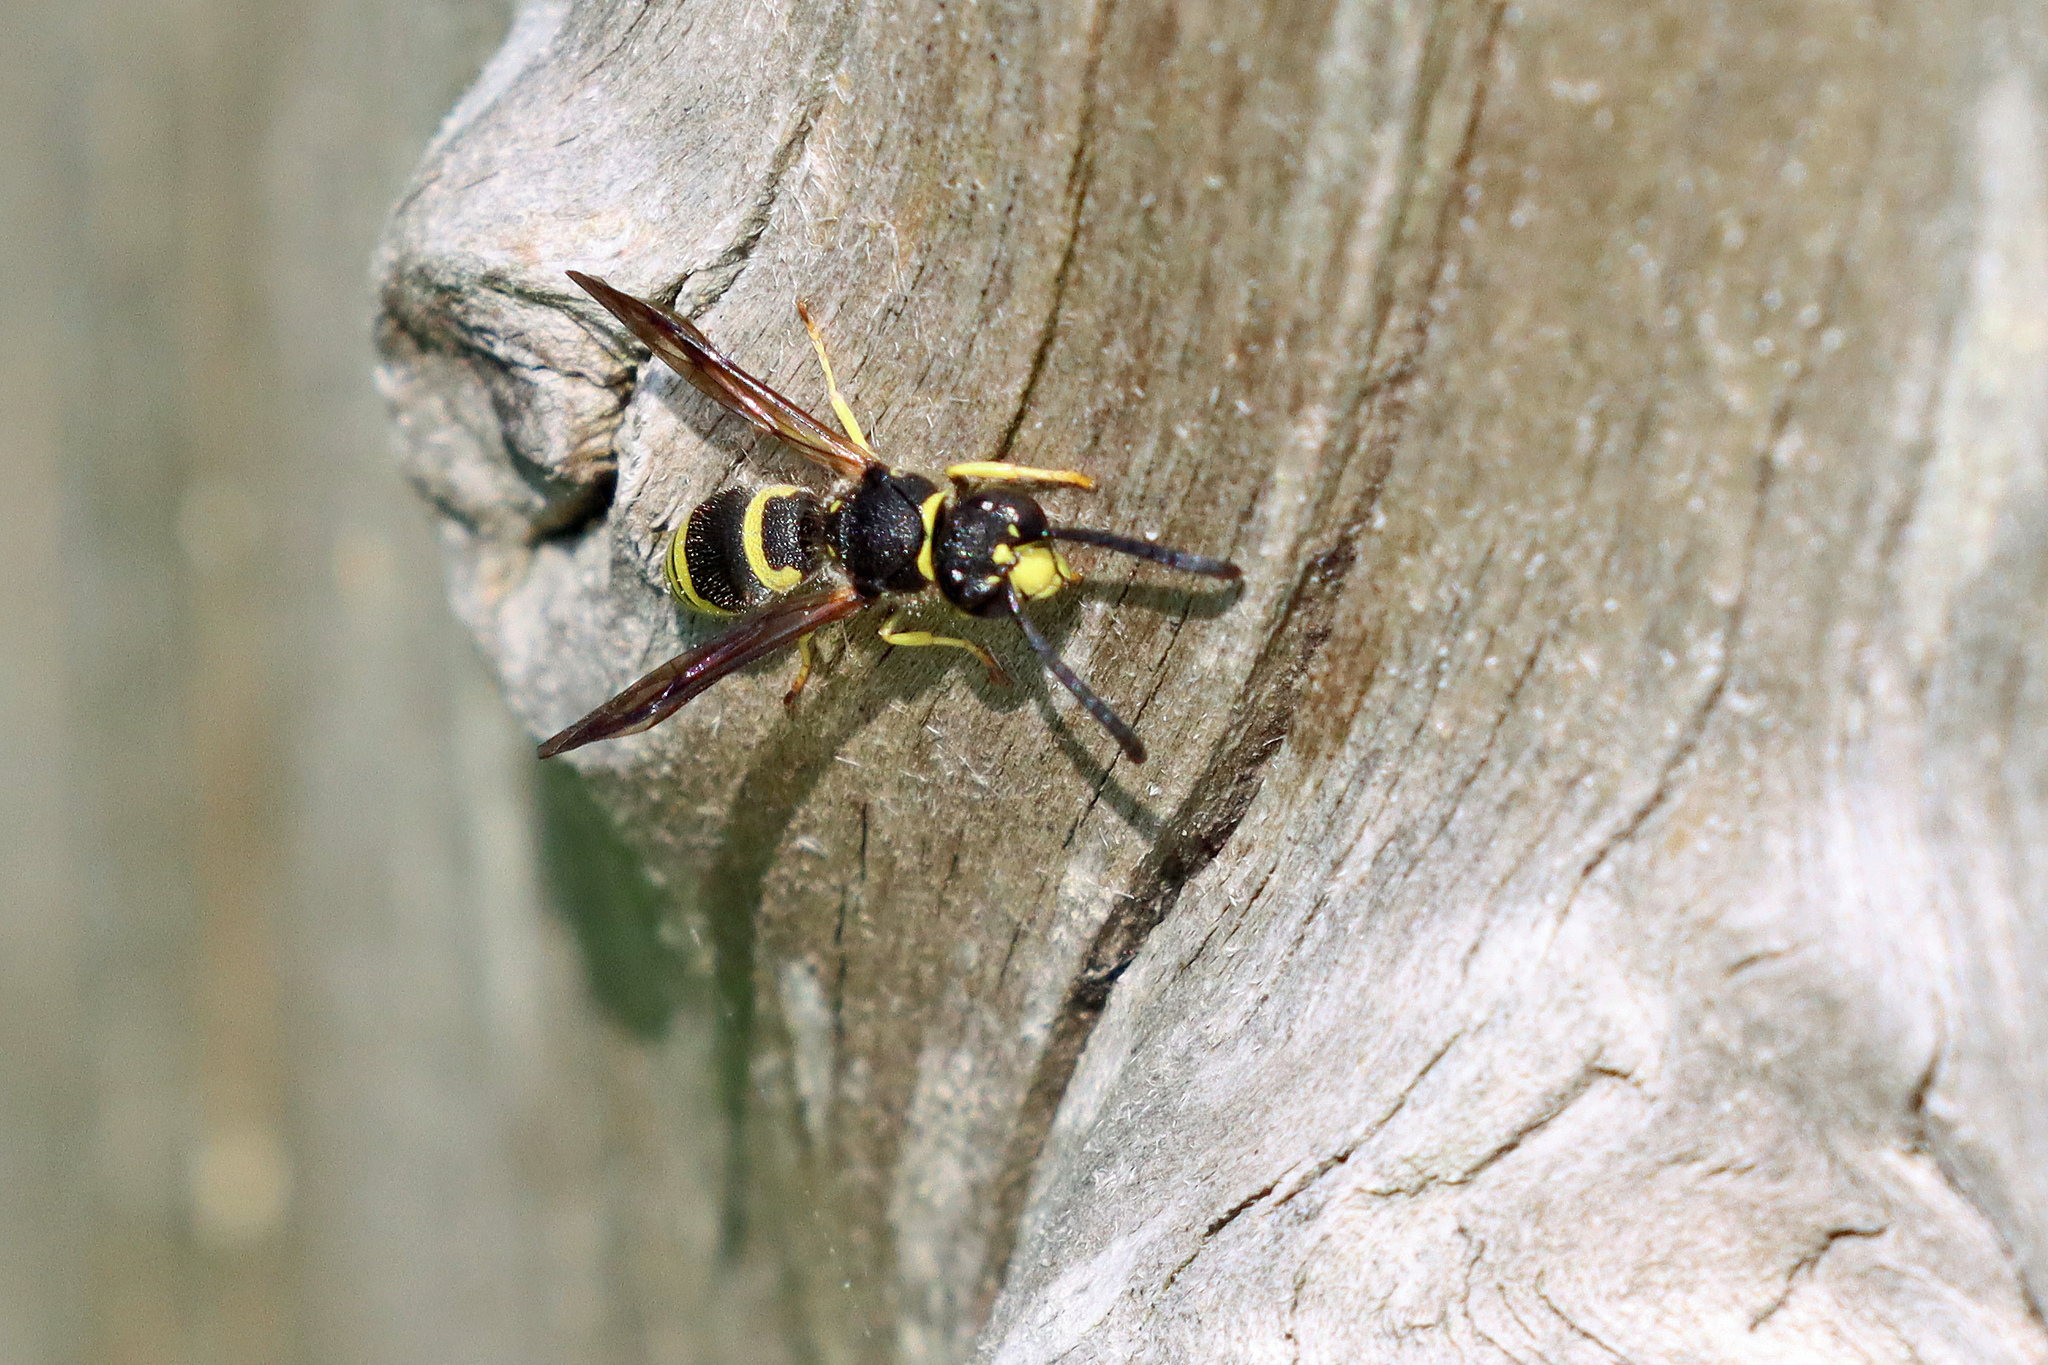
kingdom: Animalia
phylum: Arthropoda
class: Insecta
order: Hymenoptera
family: Vespidae
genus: Ancistrocerus
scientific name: Ancistrocerus
